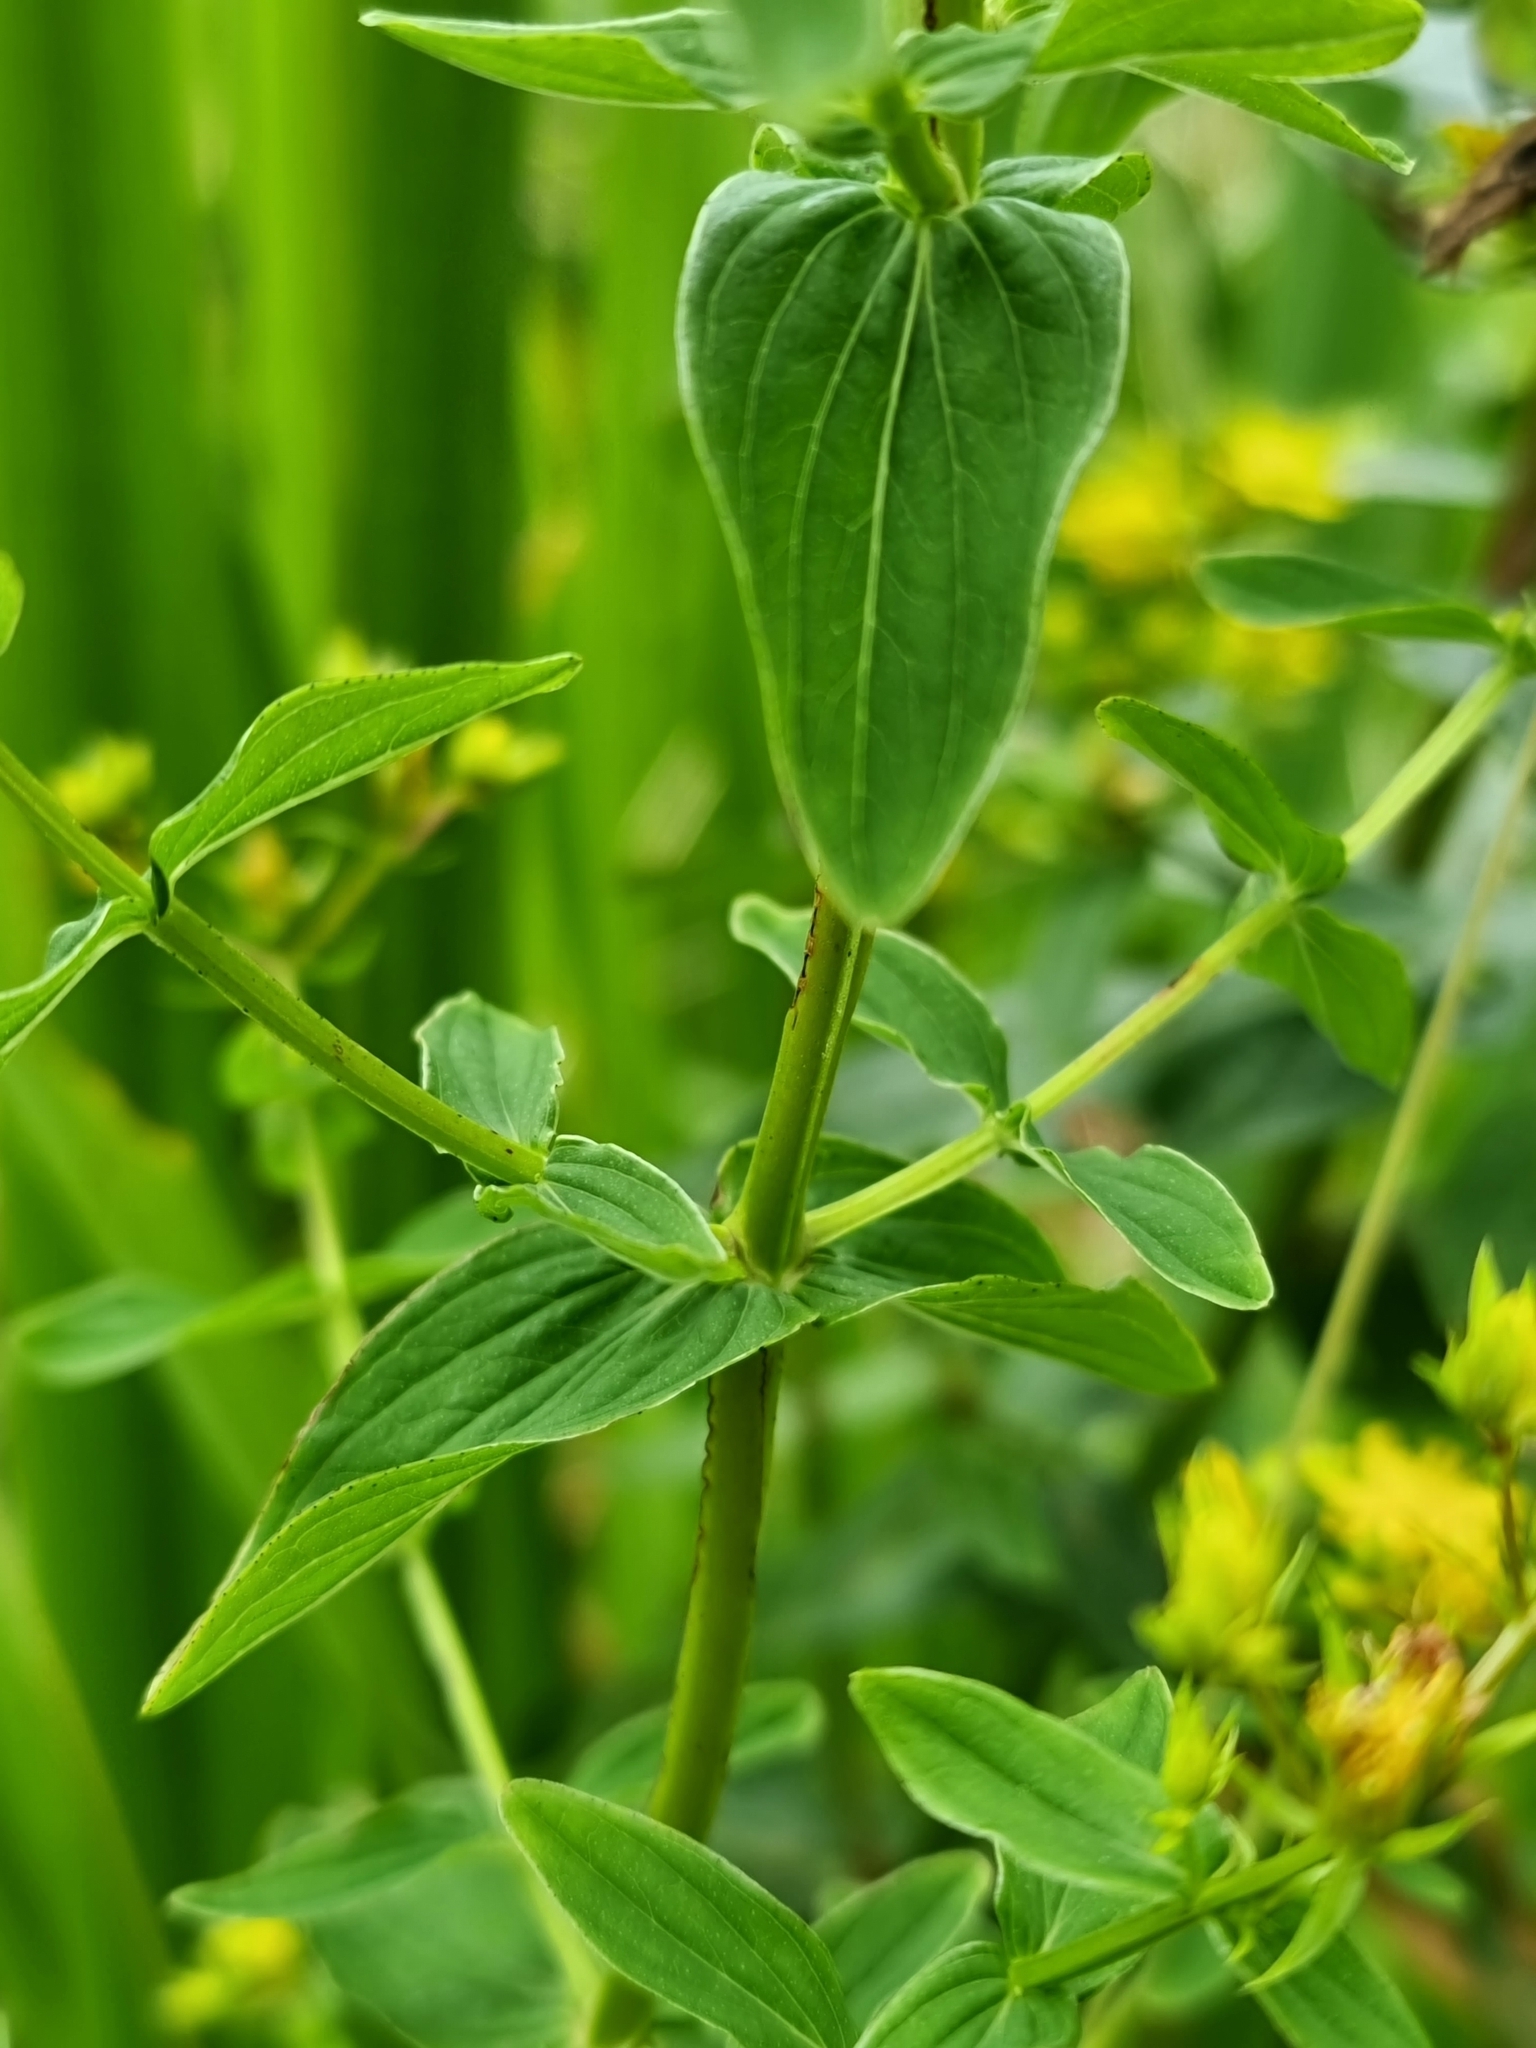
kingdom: Plantae
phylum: Tracheophyta
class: Magnoliopsida
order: Malpighiales
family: Hypericaceae
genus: Hypericum
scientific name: Hypericum tetrapterum
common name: Square-stalked st. john's-wort
